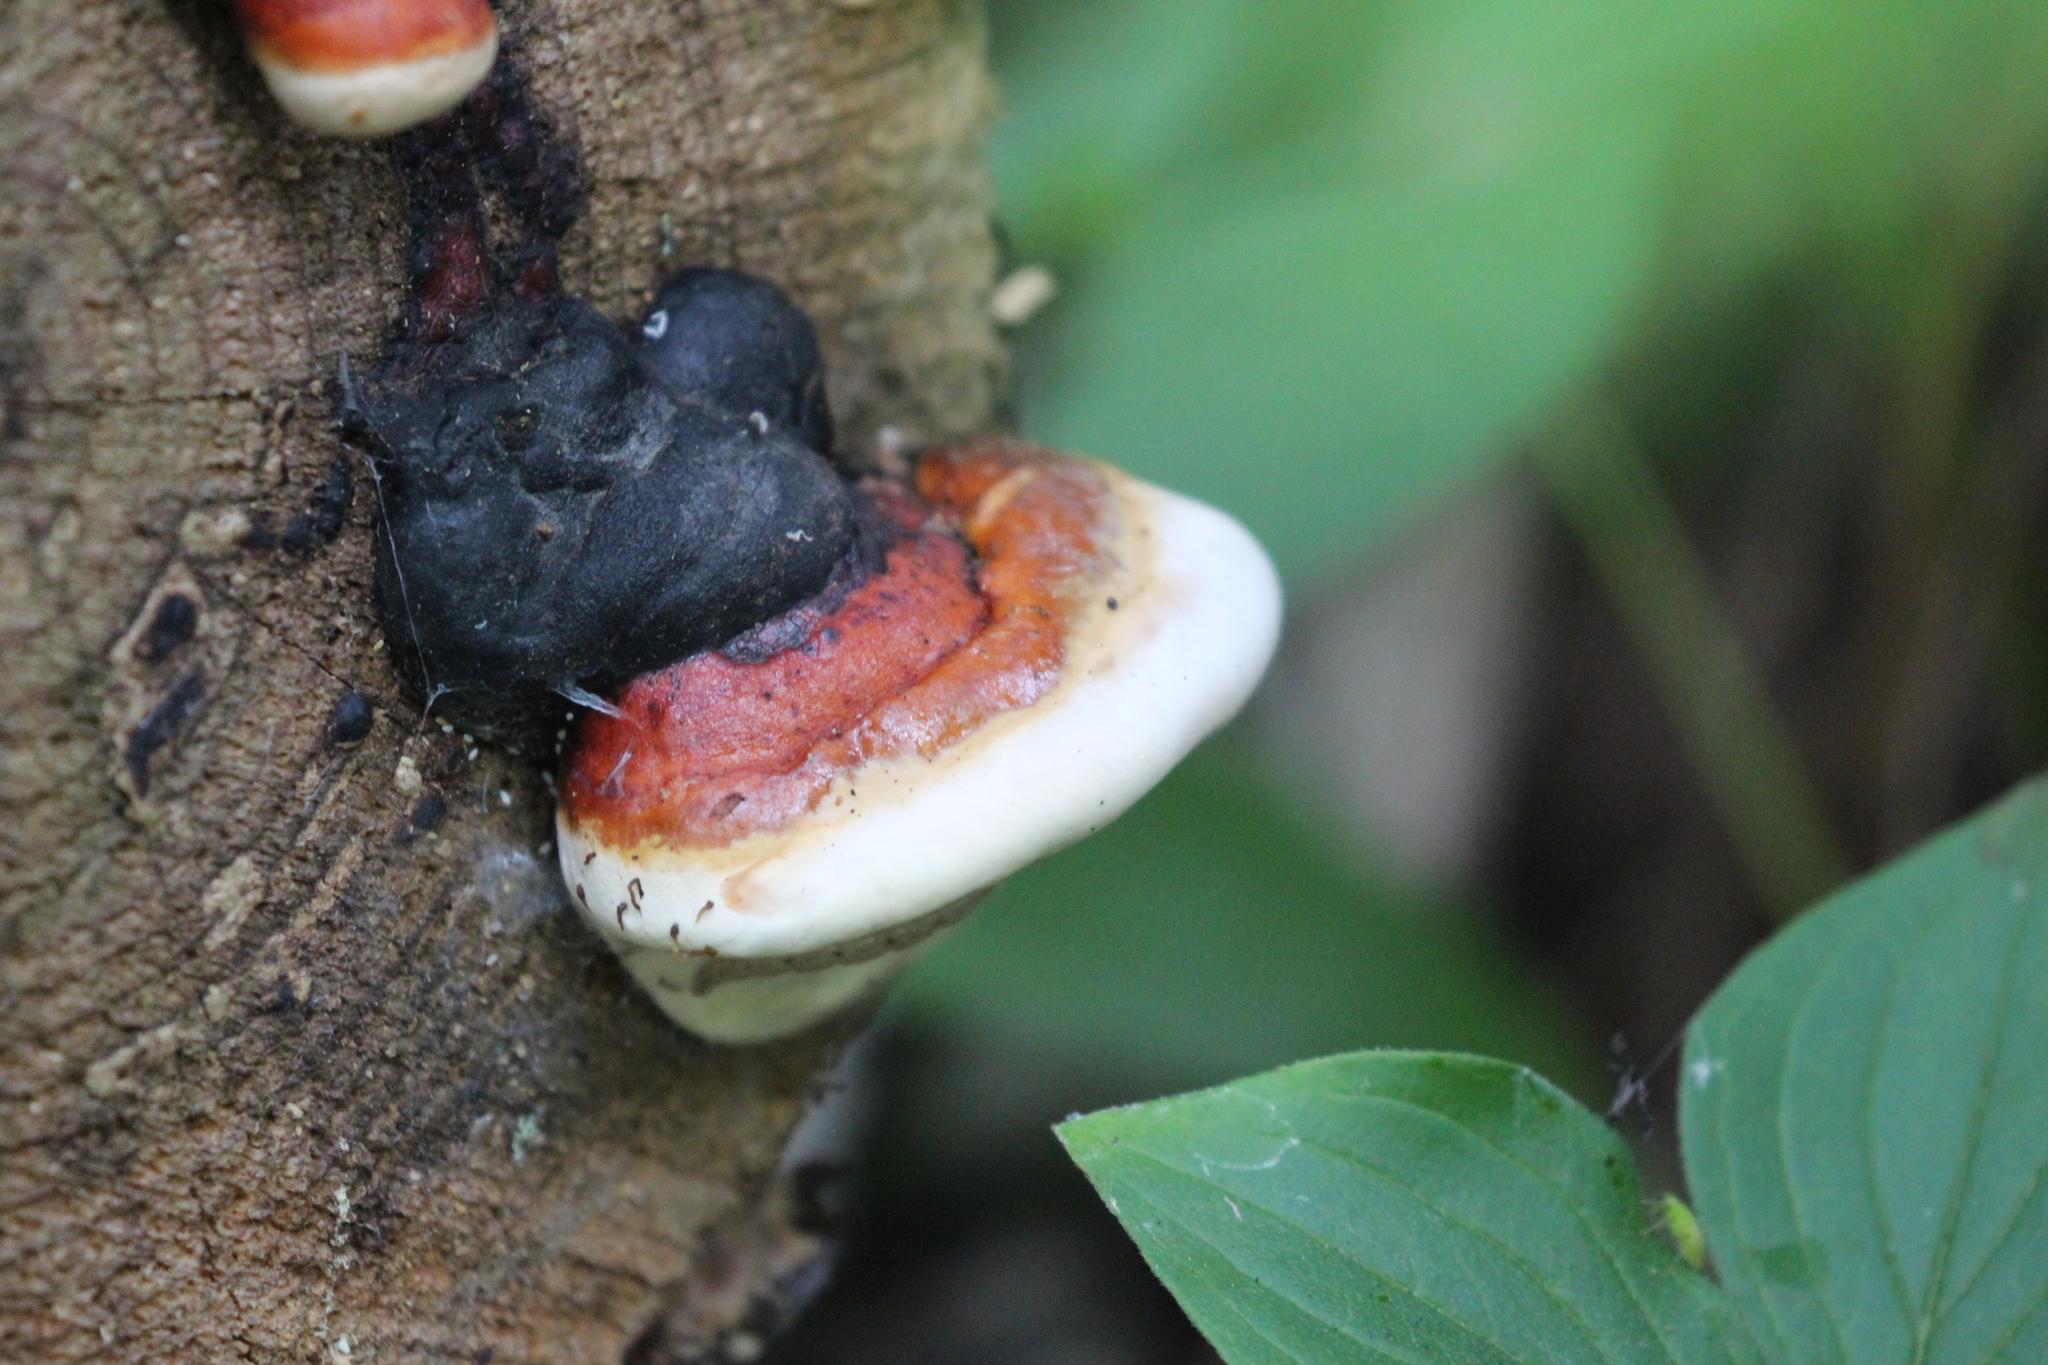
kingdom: Fungi
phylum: Basidiomycota
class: Agaricomycetes
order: Polyporales
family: Fomitopsidaceae
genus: Fomitopsis
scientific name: Fomitopsis mounceae
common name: Northern red belt
